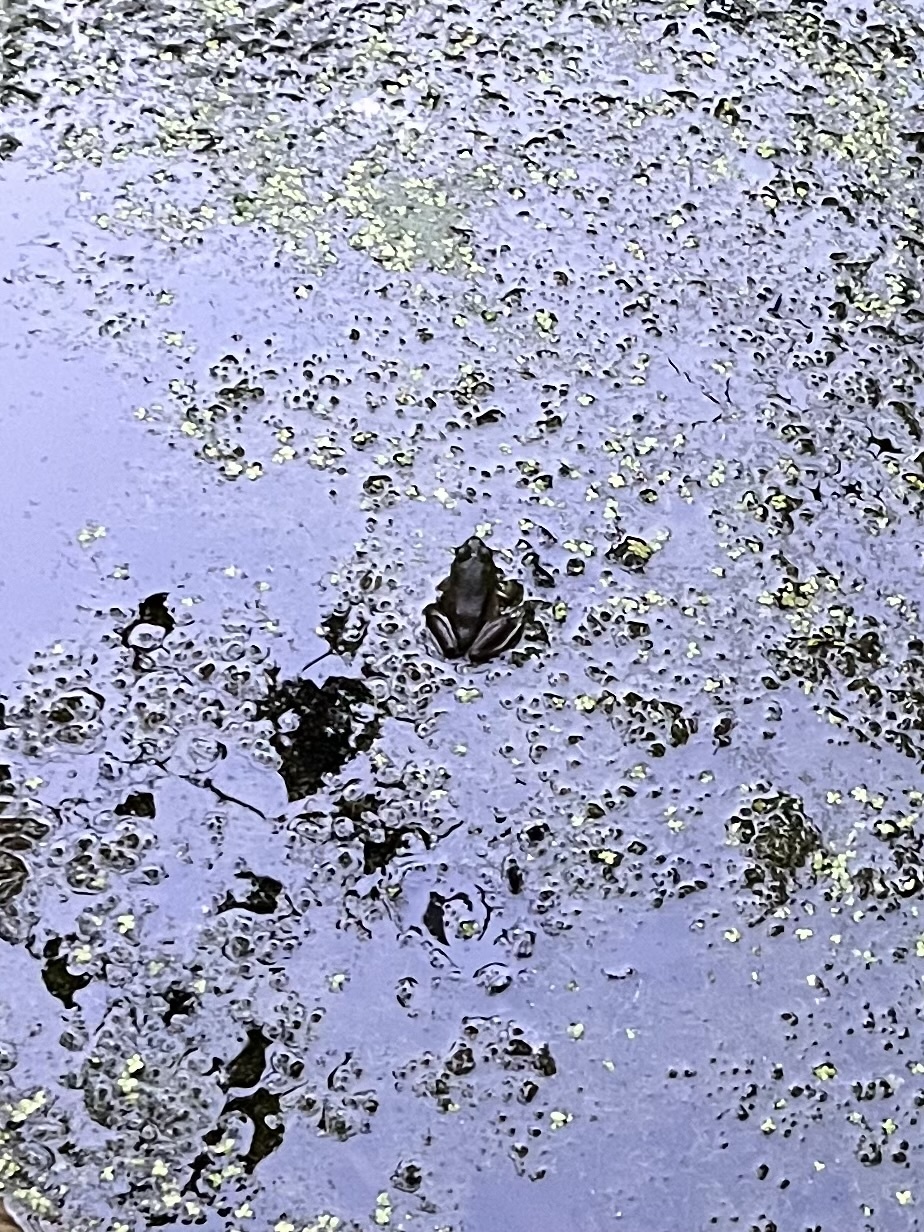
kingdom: Animalia
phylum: Chordata
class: Amphibia
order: Anura
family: Ranidae
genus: Lithobates
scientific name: Lithobates
